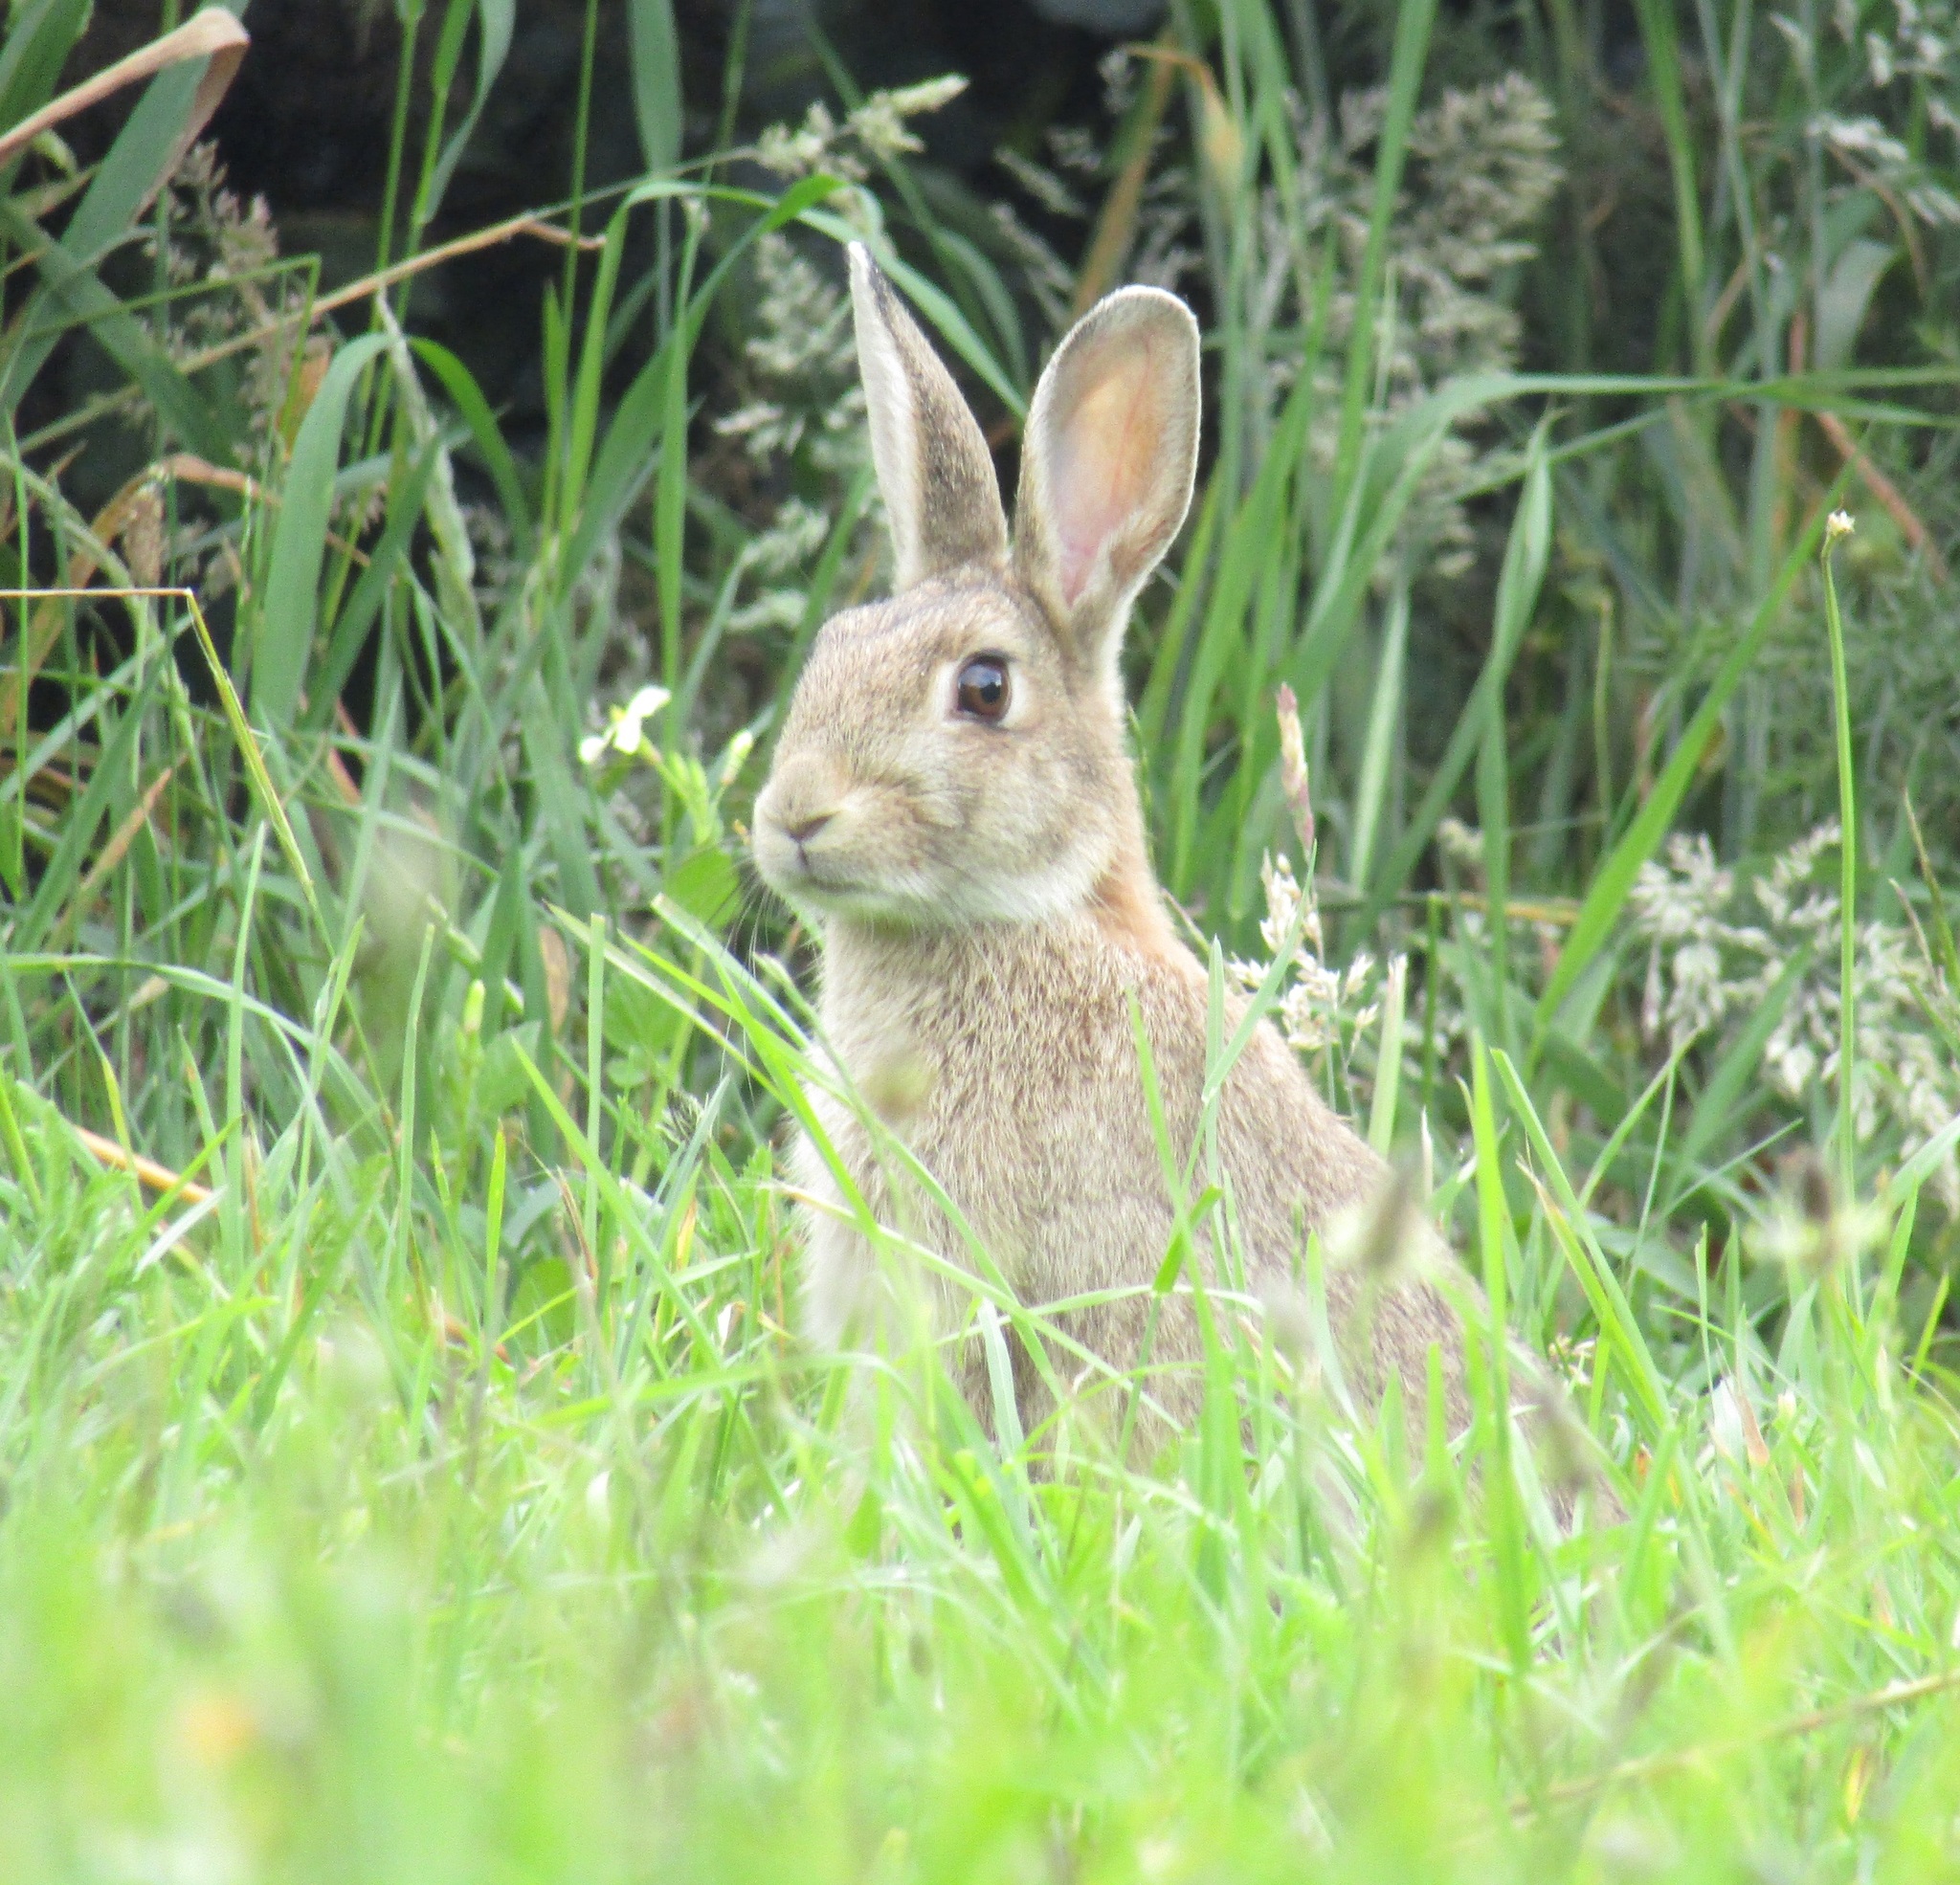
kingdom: Animalia
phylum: Chordata
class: Mammalia
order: Lagomorpha
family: Leporidae
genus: Oryctolagus
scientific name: Oryctolagus cuniculus
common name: European rabbit
